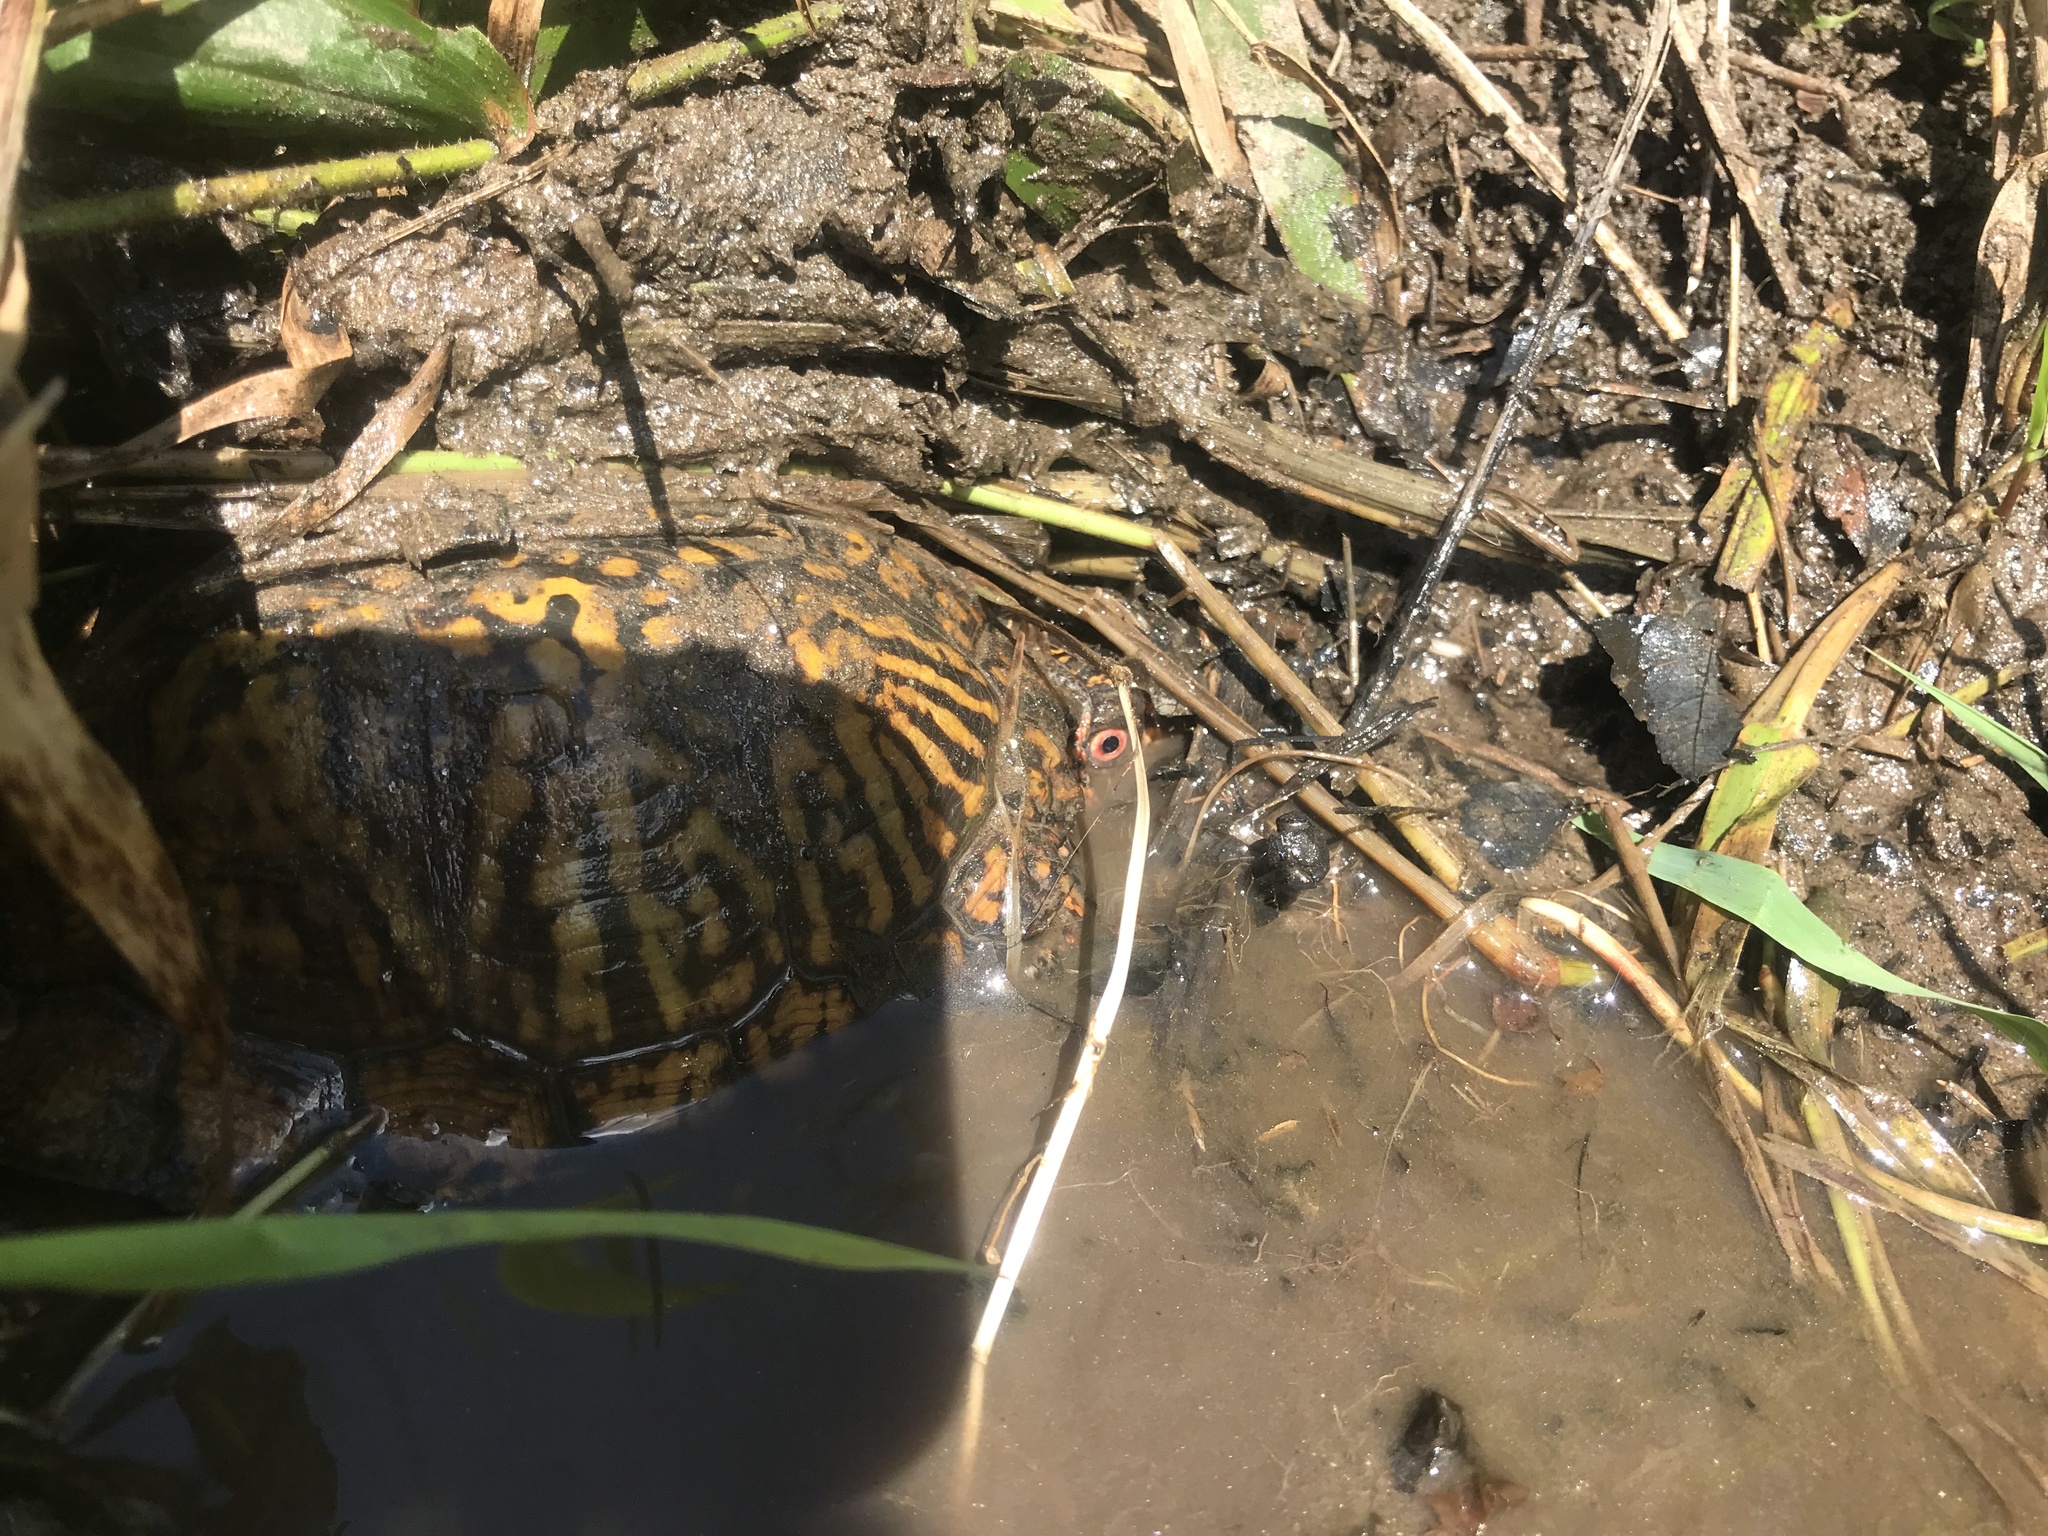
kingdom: Animalia
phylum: Chordata
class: Testudines
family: Emydidae
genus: Terrapene
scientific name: Terrapene carolina
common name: Common box turtle
